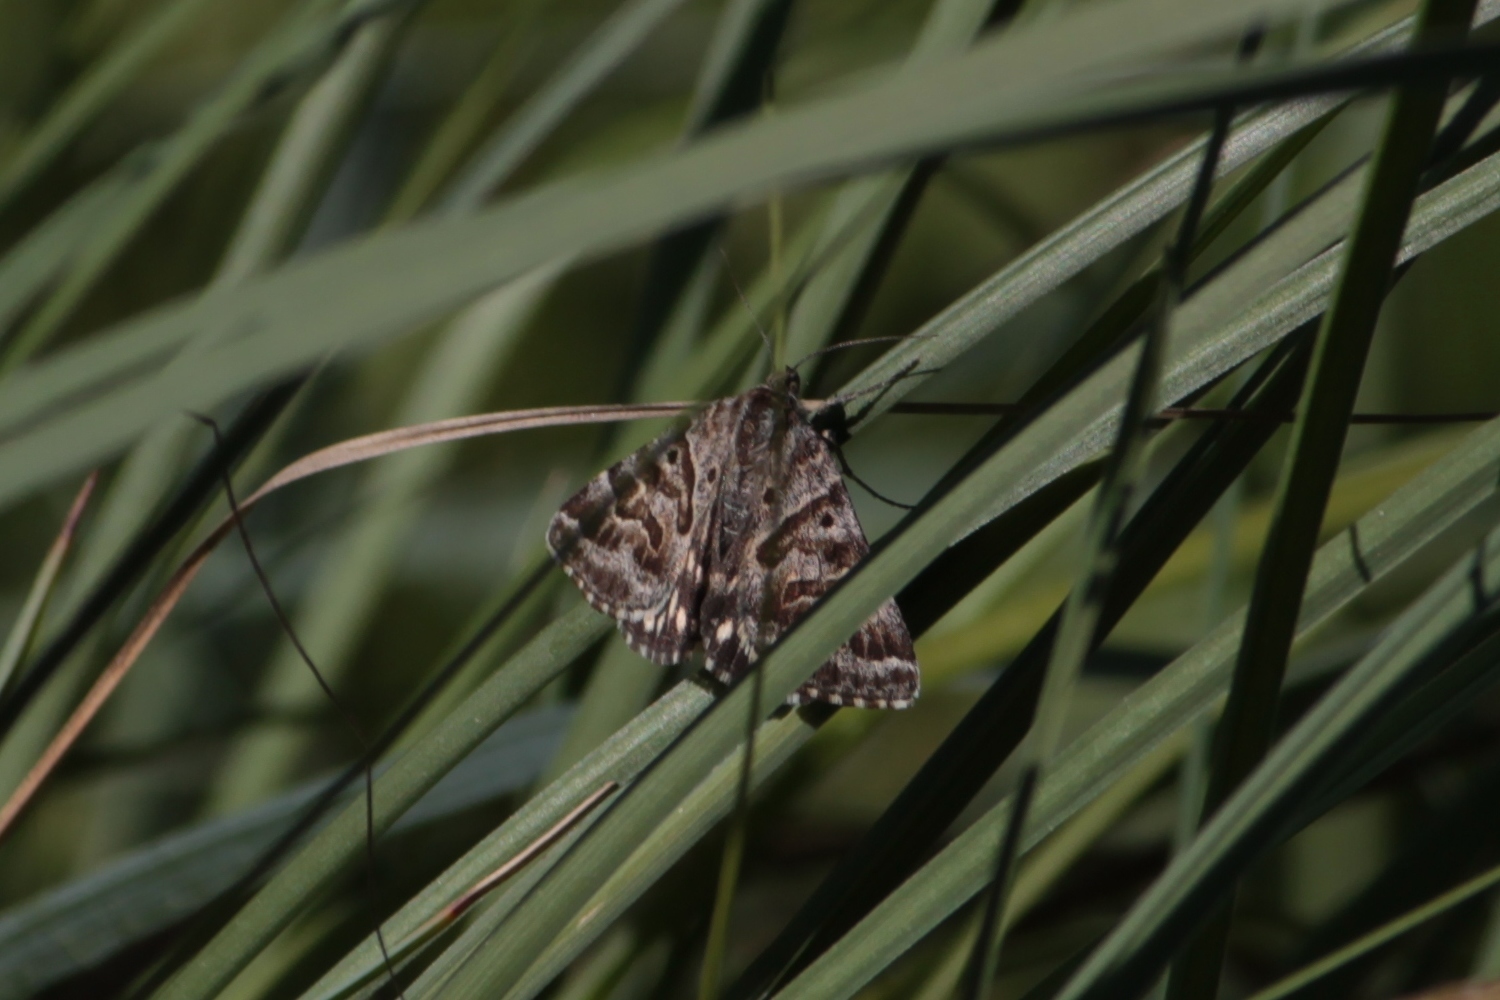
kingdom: Animalia
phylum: Arthropoda
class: Insecta
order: Lepidoptera
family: Erebidae
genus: Callistege
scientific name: Callistege mi
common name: Mother shipton
